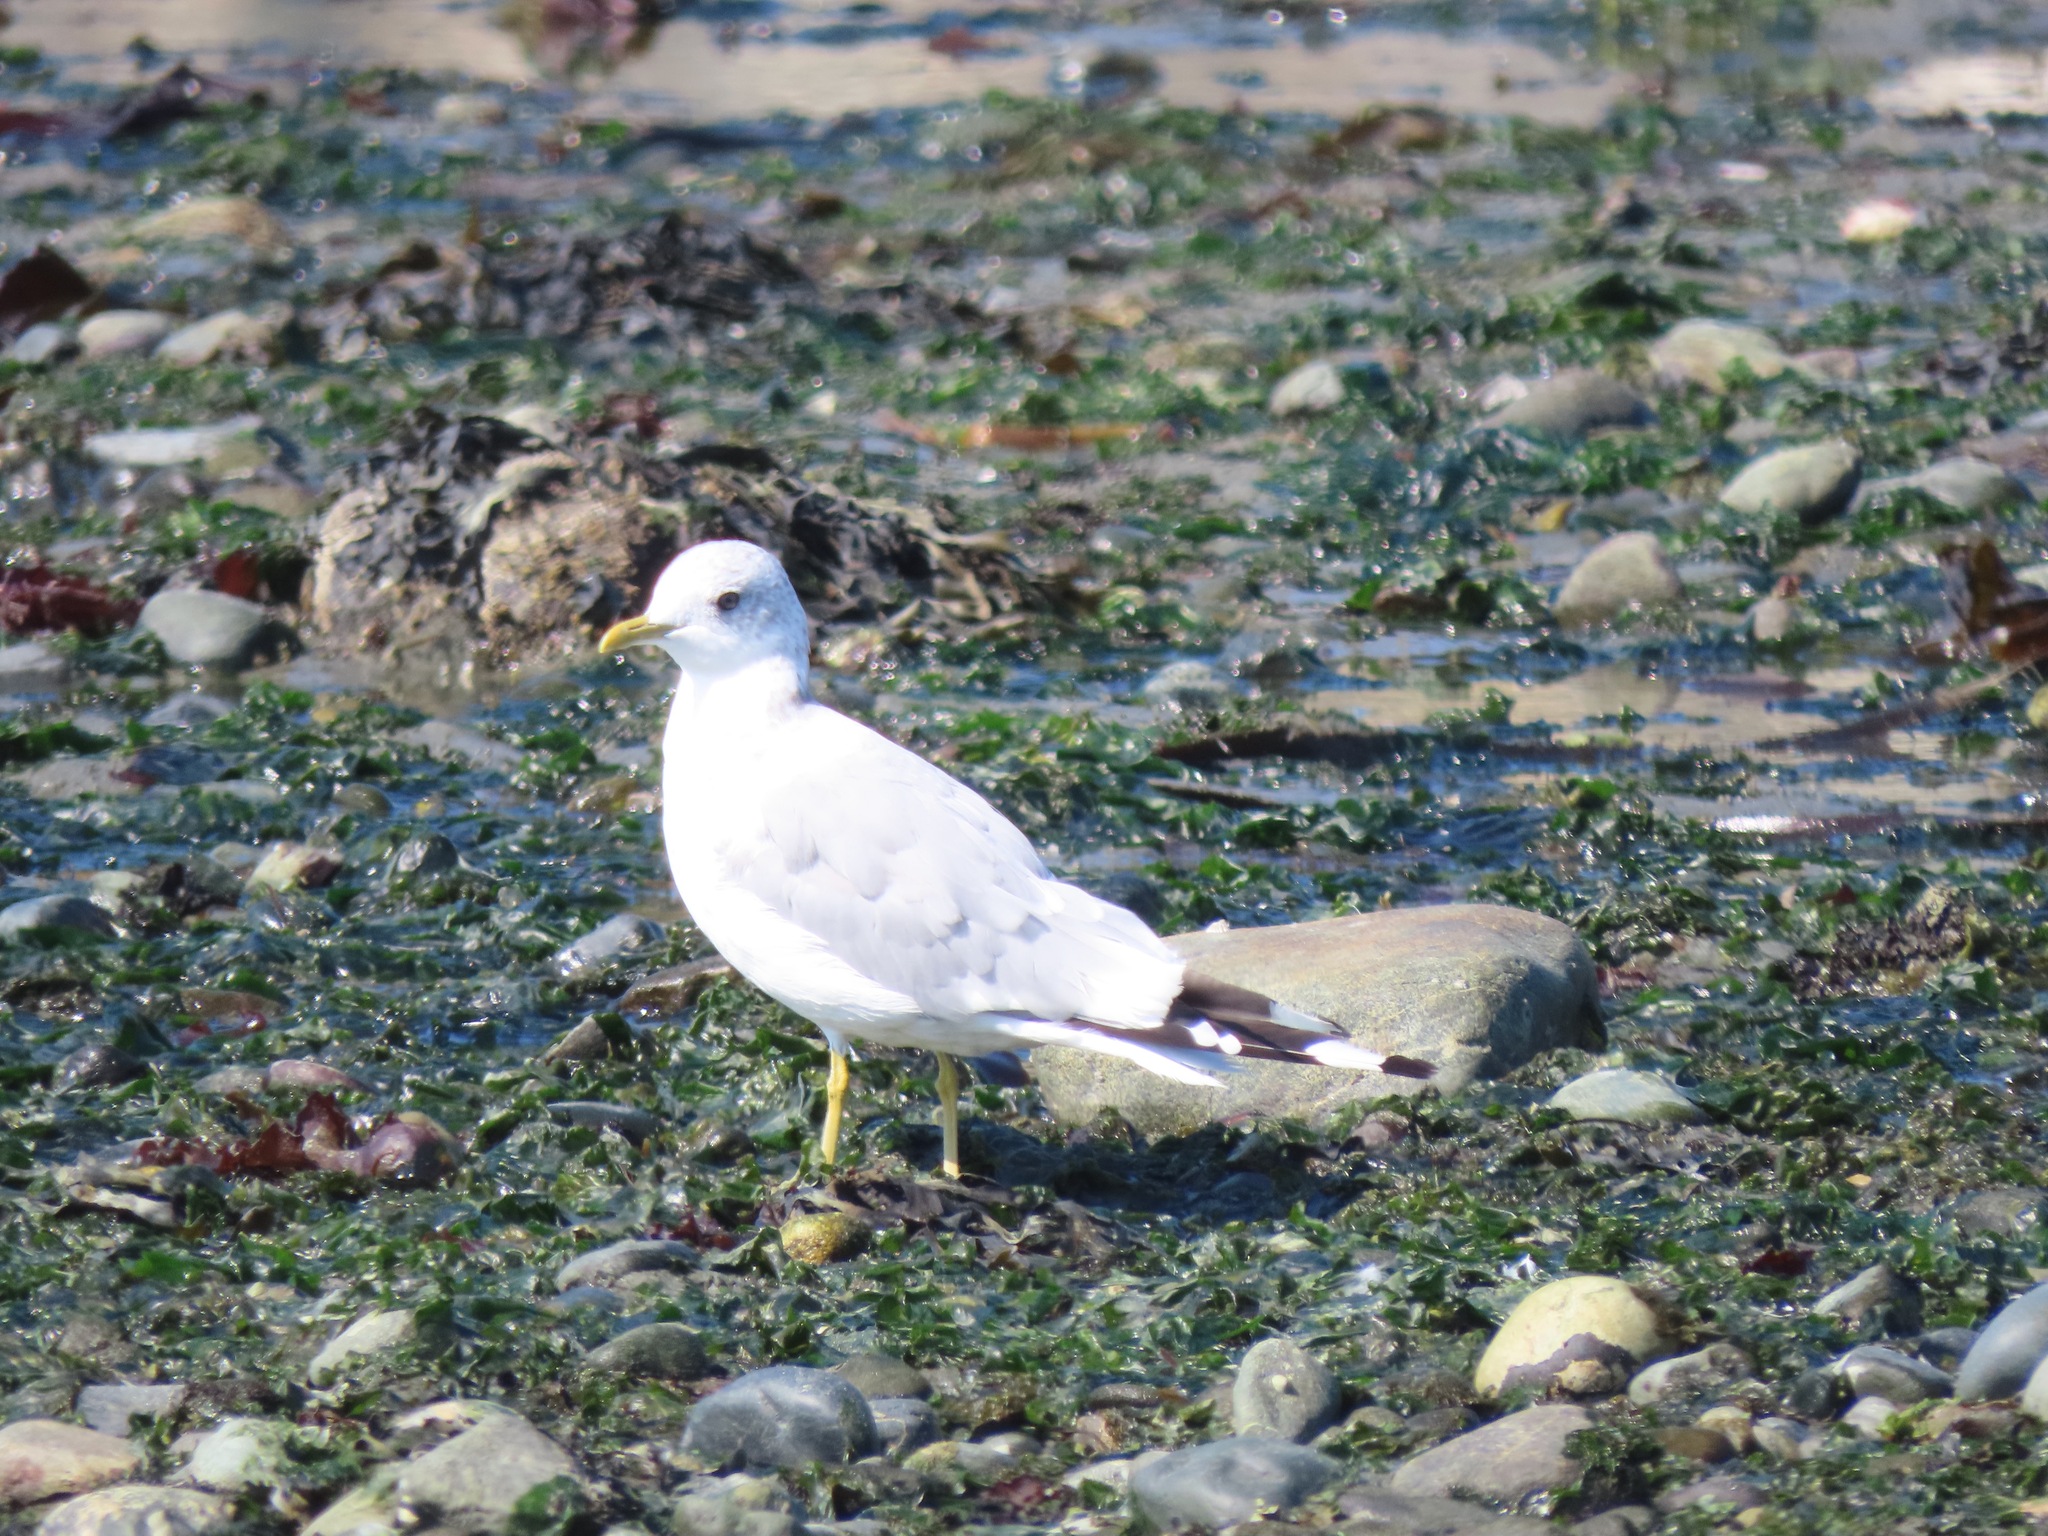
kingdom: Animalia
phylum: Chordata
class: Aves
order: Charadriiformes
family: Laridae
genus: Larus
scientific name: Larus brachyrhynchus
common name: Short-billed gull
